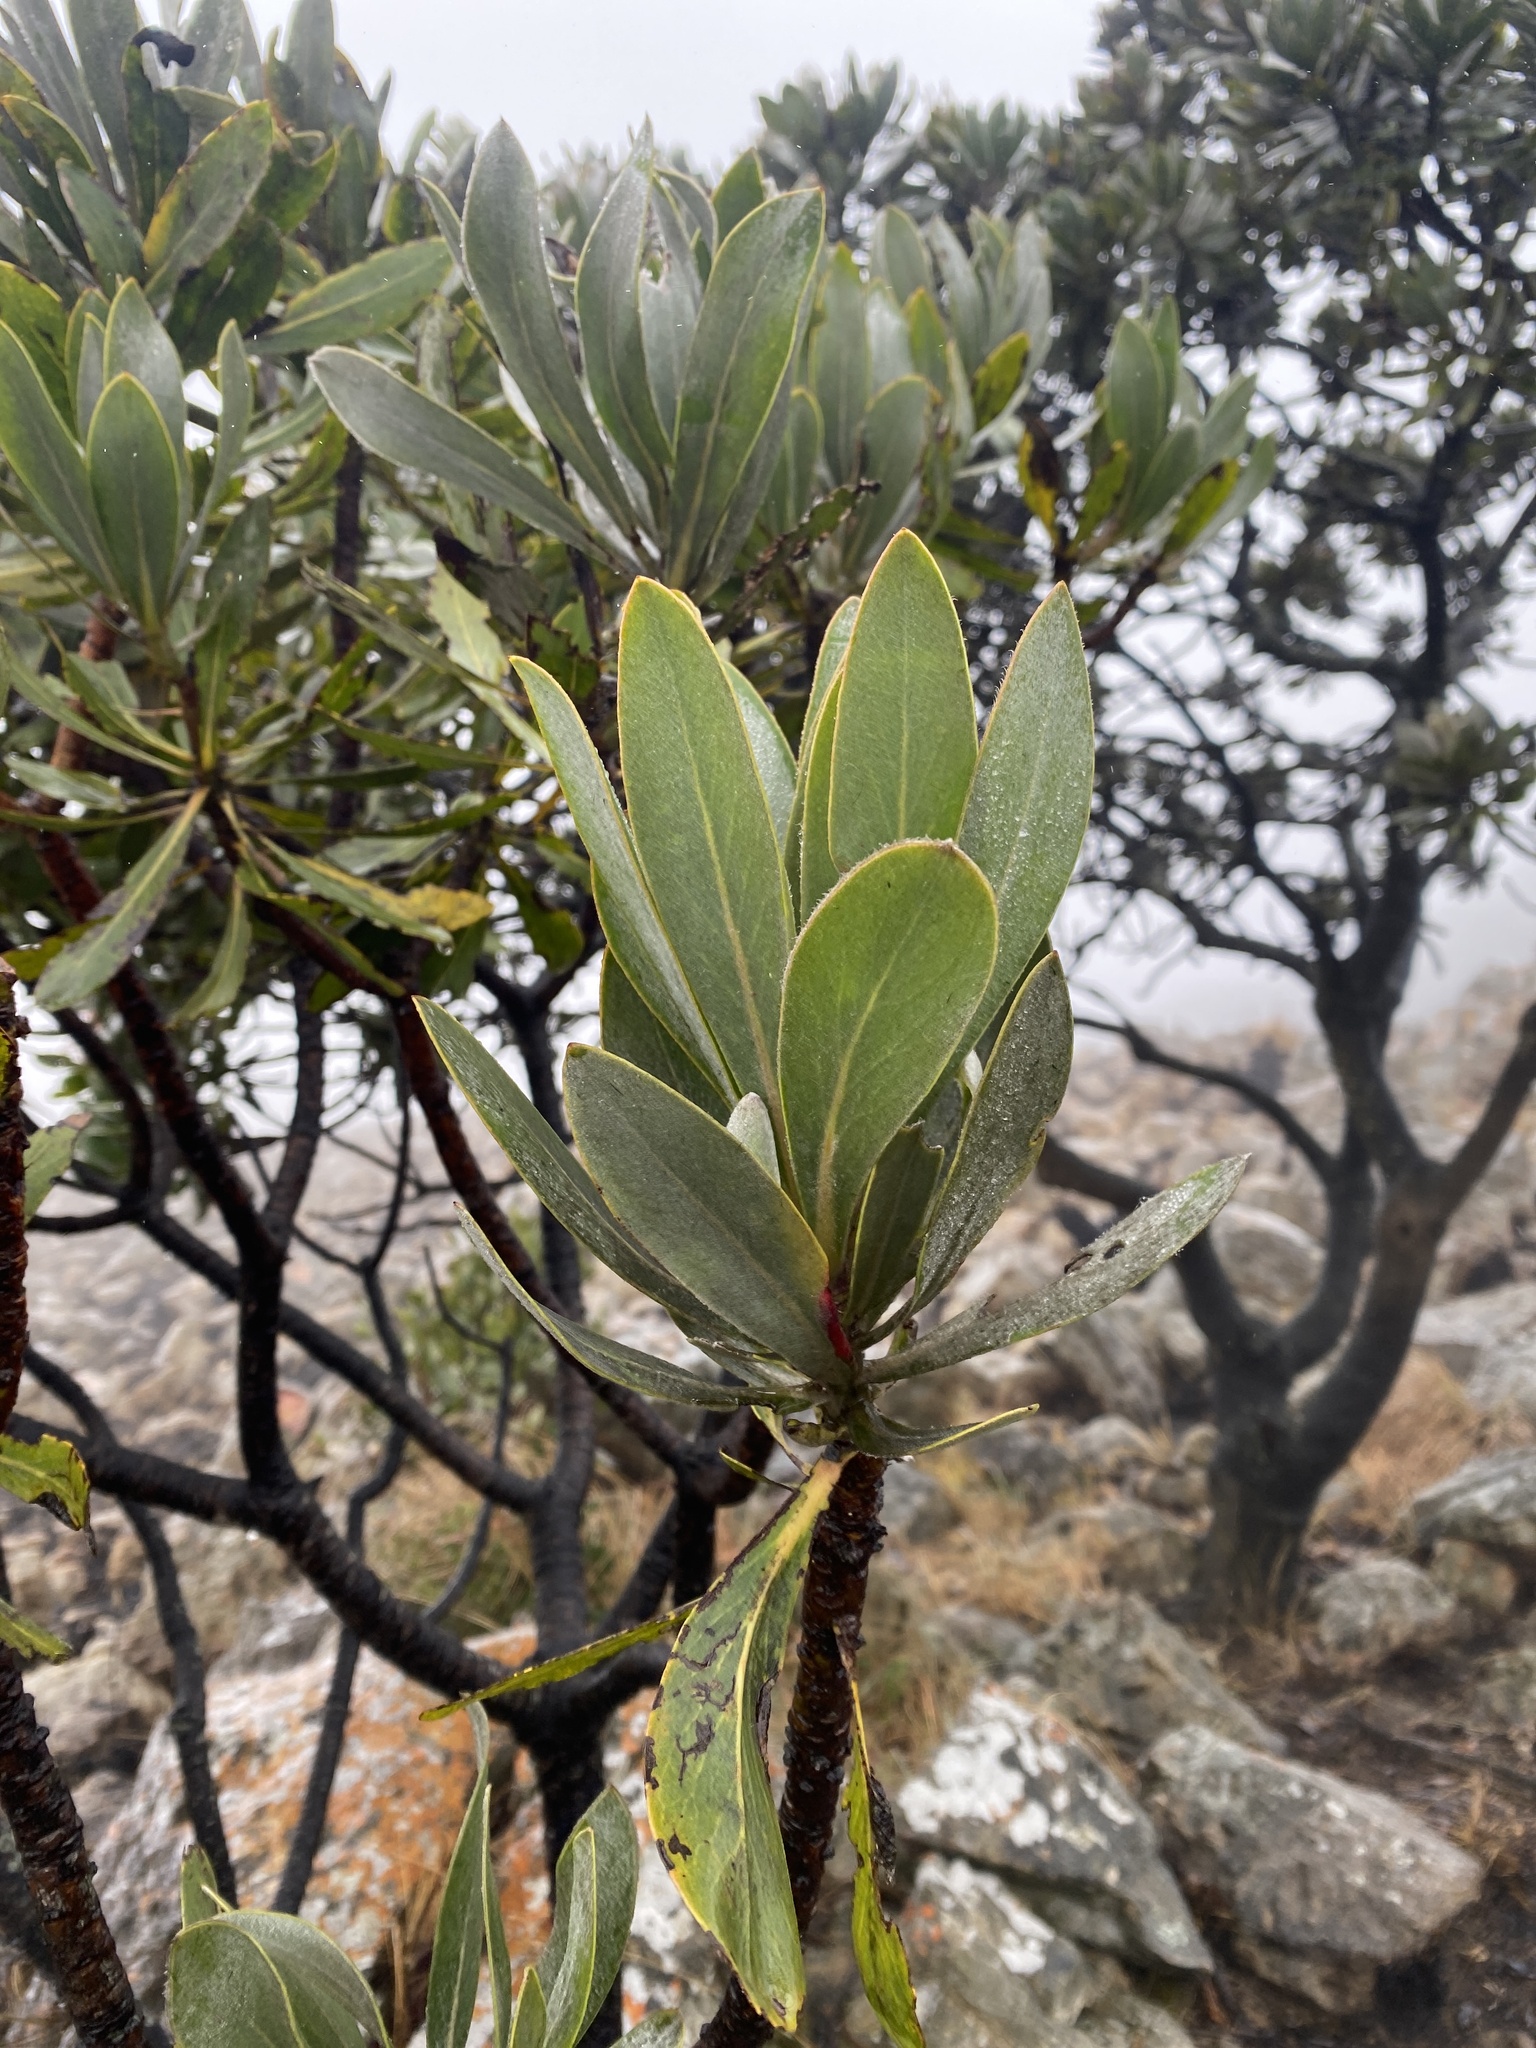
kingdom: Plantae
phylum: Tracheophyta
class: Magnoliopsida
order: Proteales
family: Proteaceae
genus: Protea
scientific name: Protea roupelliae
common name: Silver sugarbush
